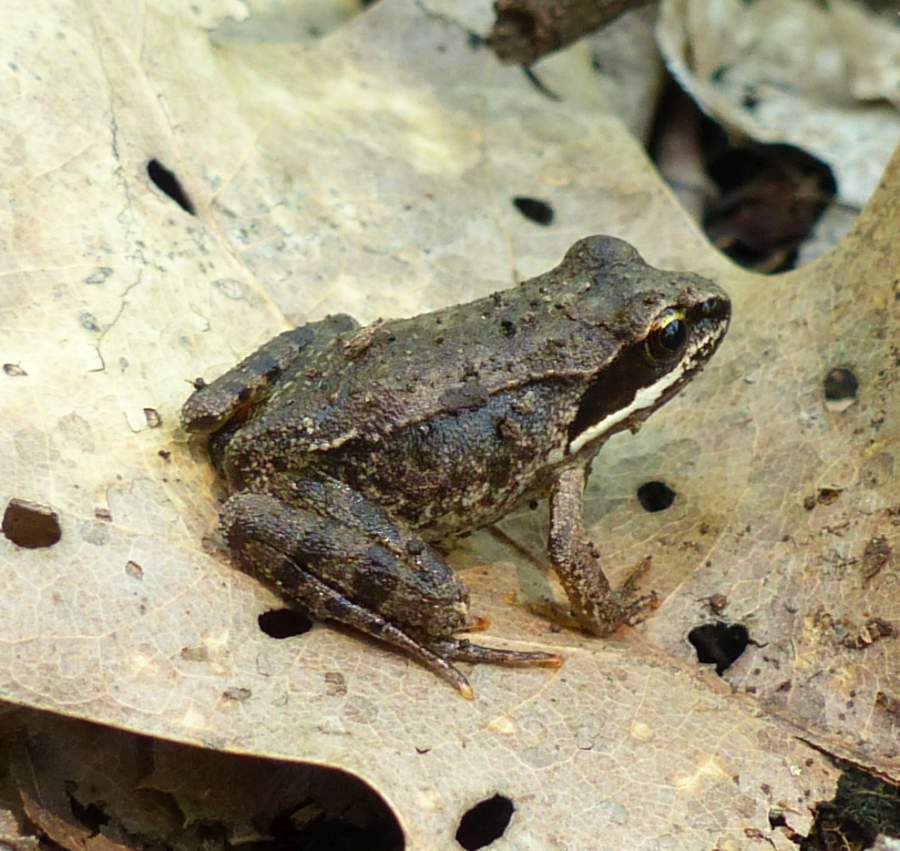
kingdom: Animalia
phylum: Chordata
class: Amphibia
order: Anura
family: Ranidae
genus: Lithobates
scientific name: Lithobates sylvaticus
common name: Wood frog
